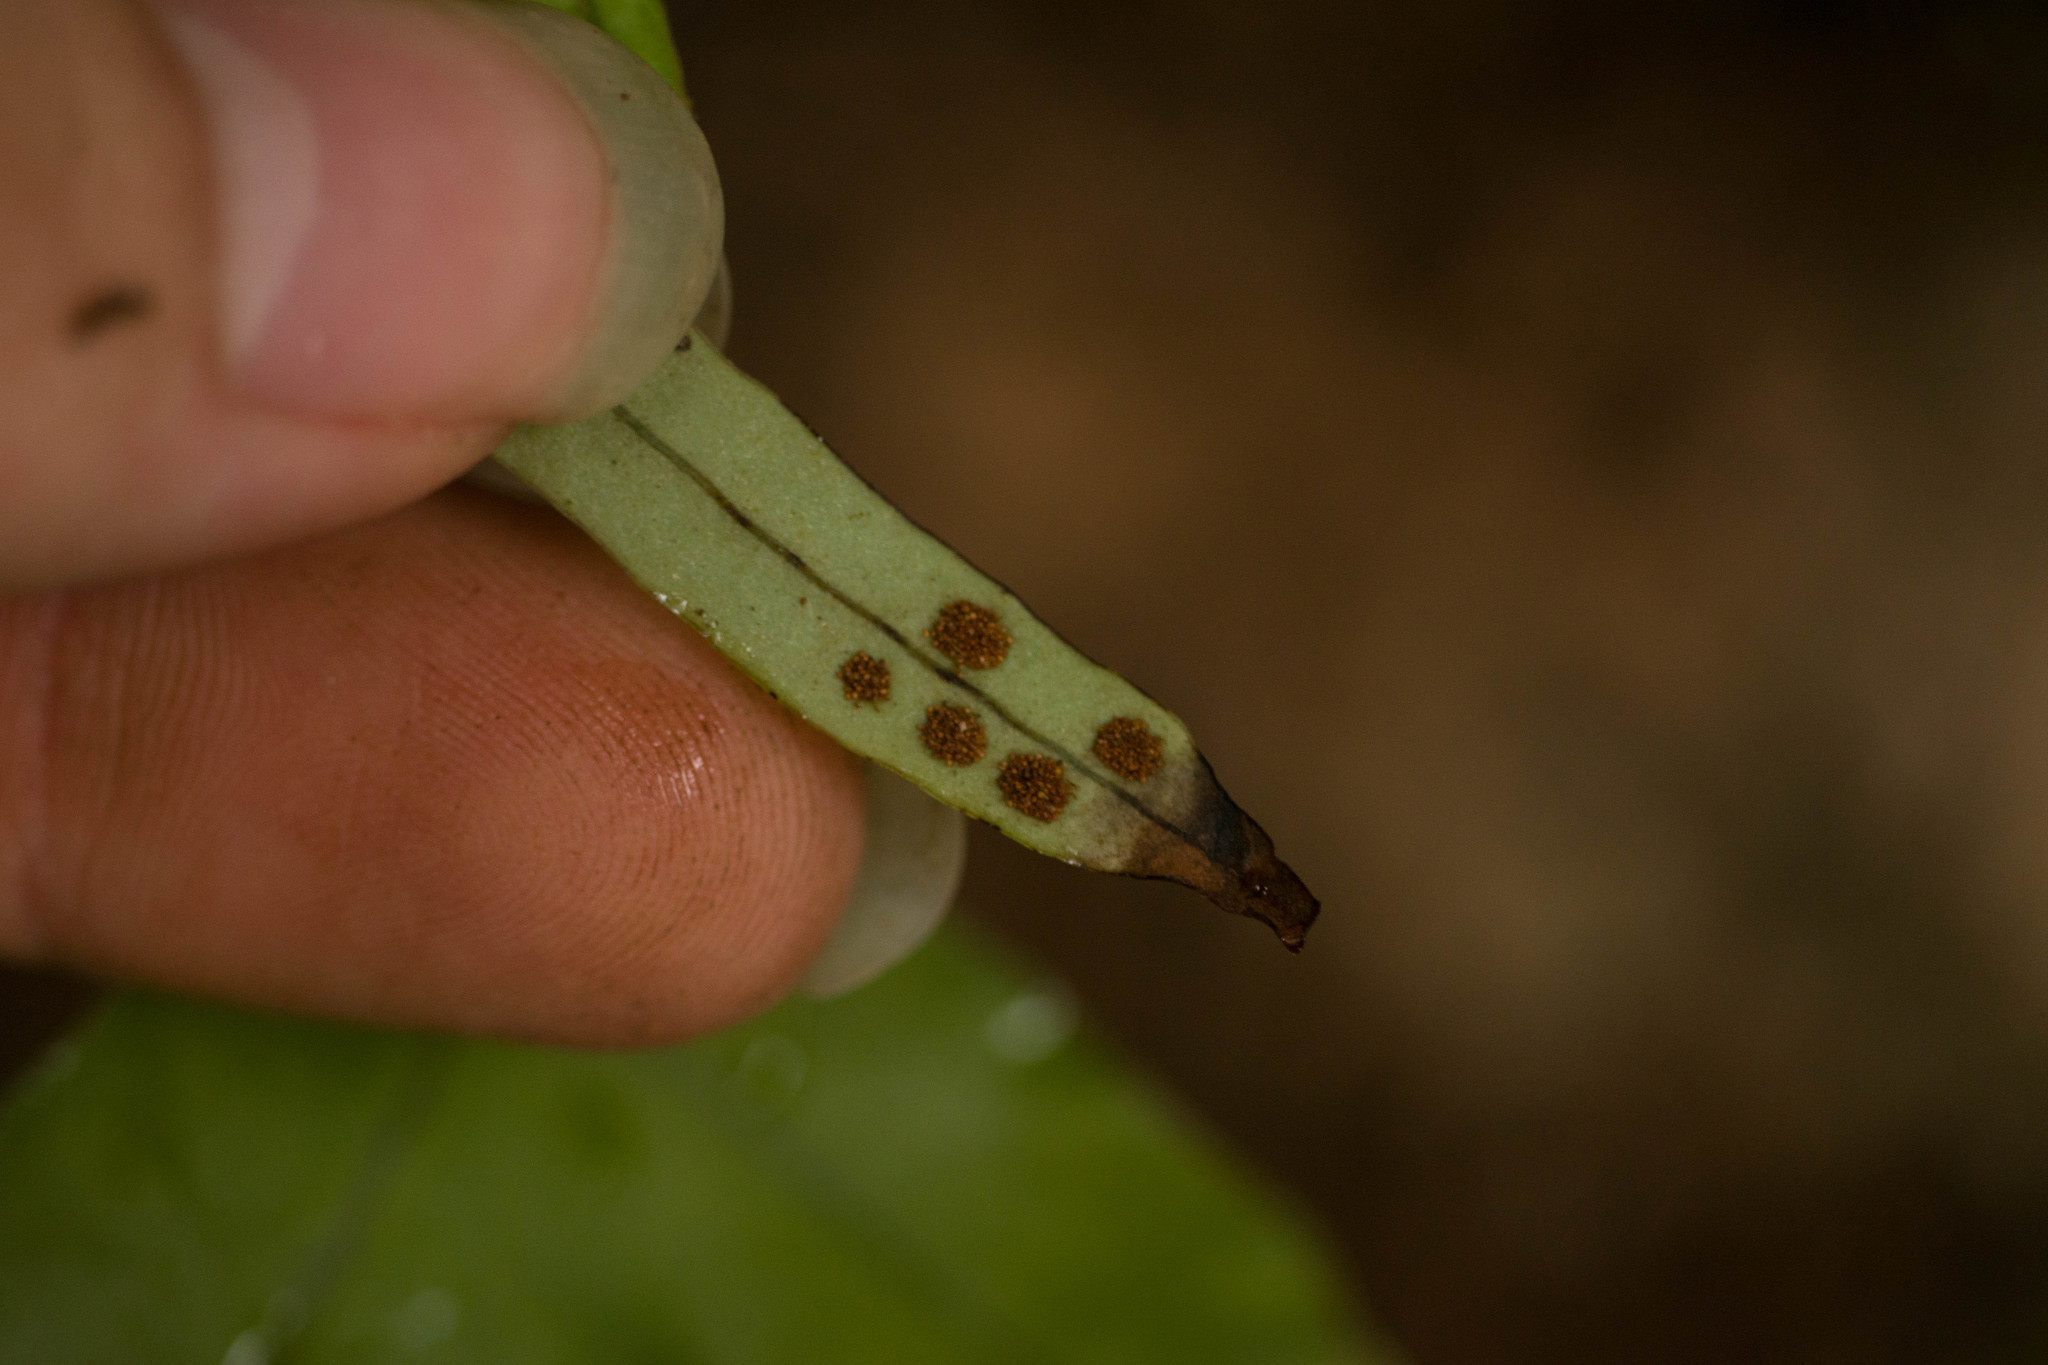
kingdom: Plantae
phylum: Tracheophyta
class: Polypodiopsida
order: Polypodiales
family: Polypodiaceae
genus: Lepisorus
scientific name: Lepisorus thunbergianus
